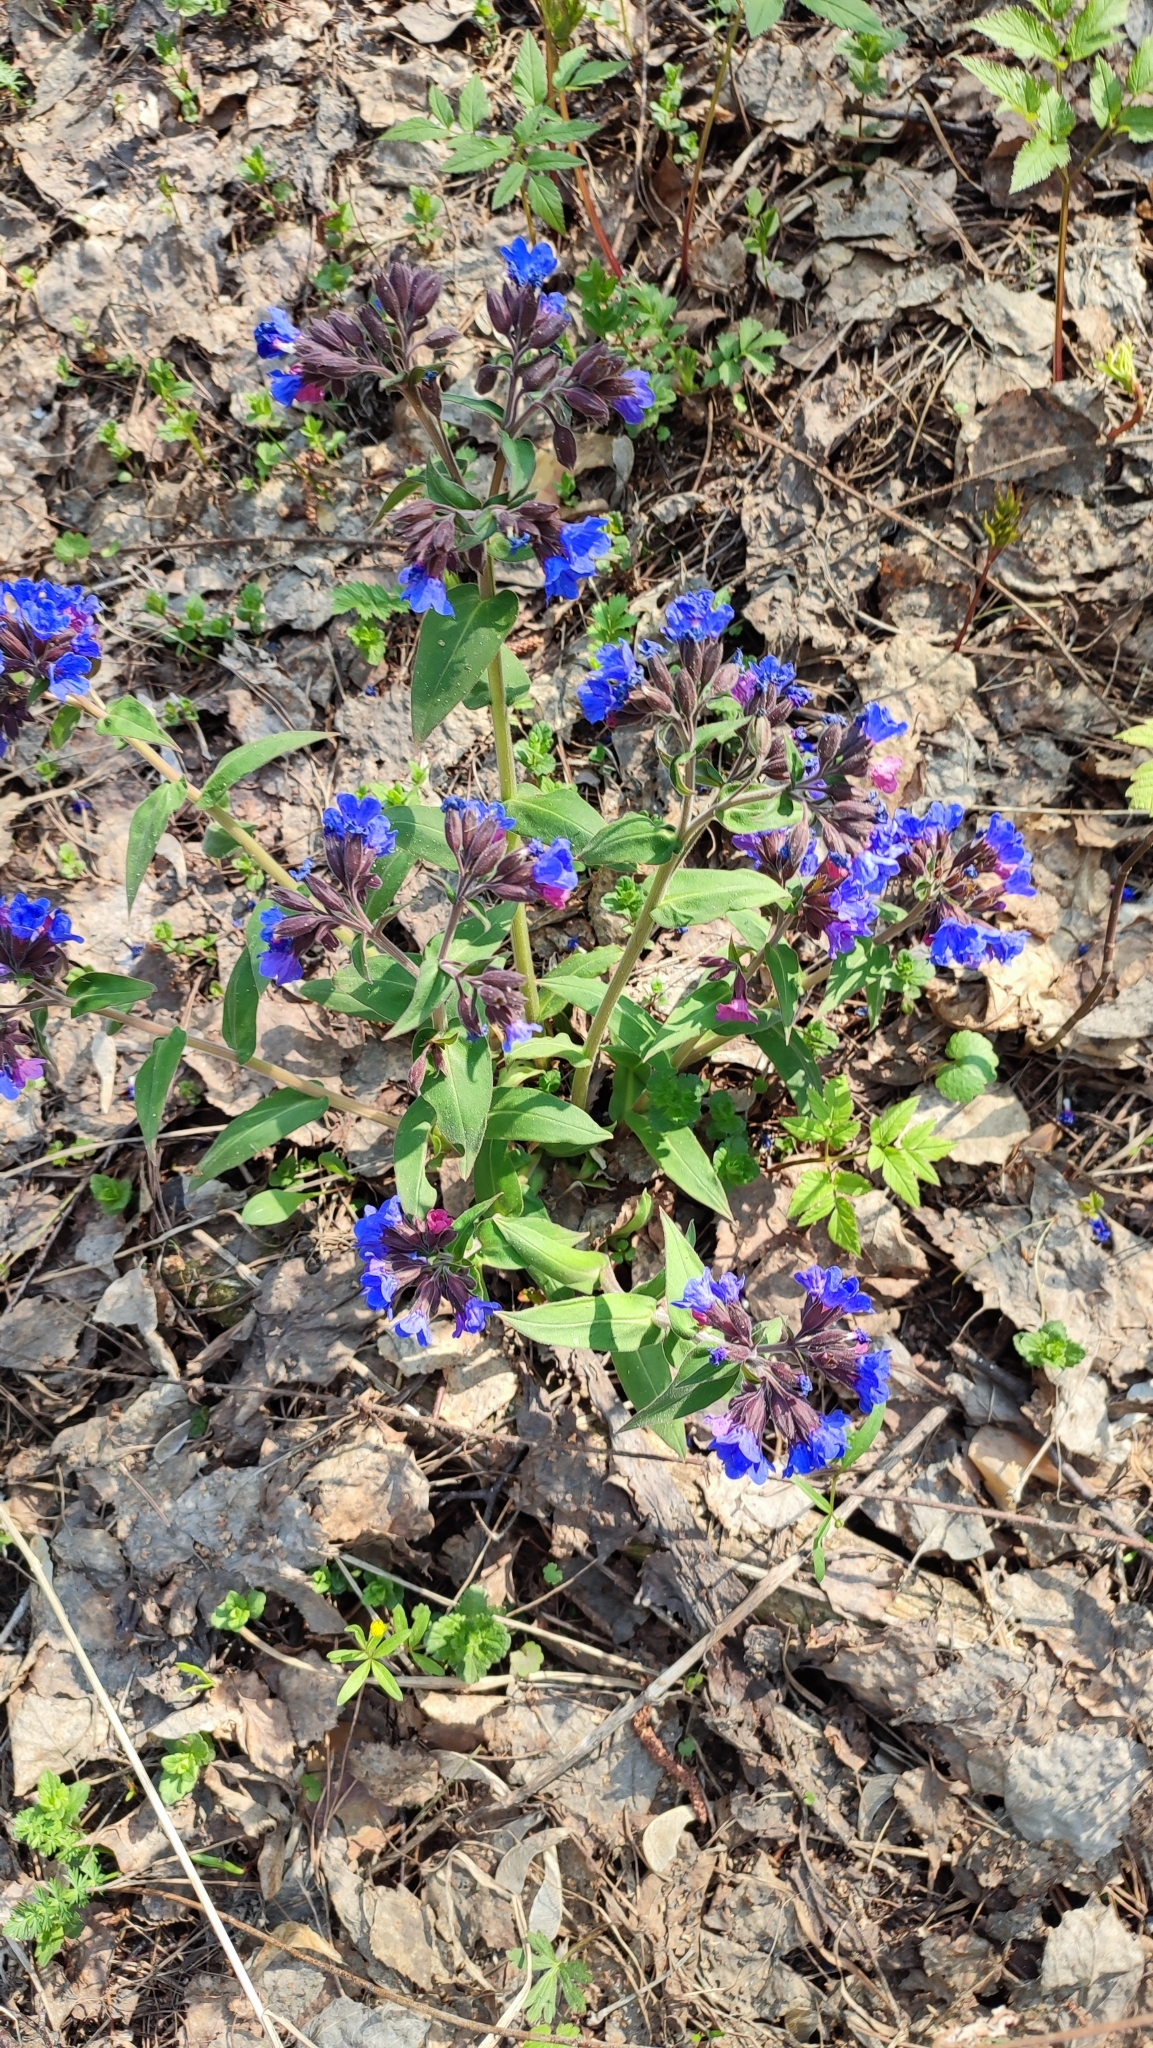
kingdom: Plantae
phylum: Tracheophyta
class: Magnoliopsida
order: Boraginales
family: Boraginaceae
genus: Pulmonaria
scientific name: Pulmonaria mollis
